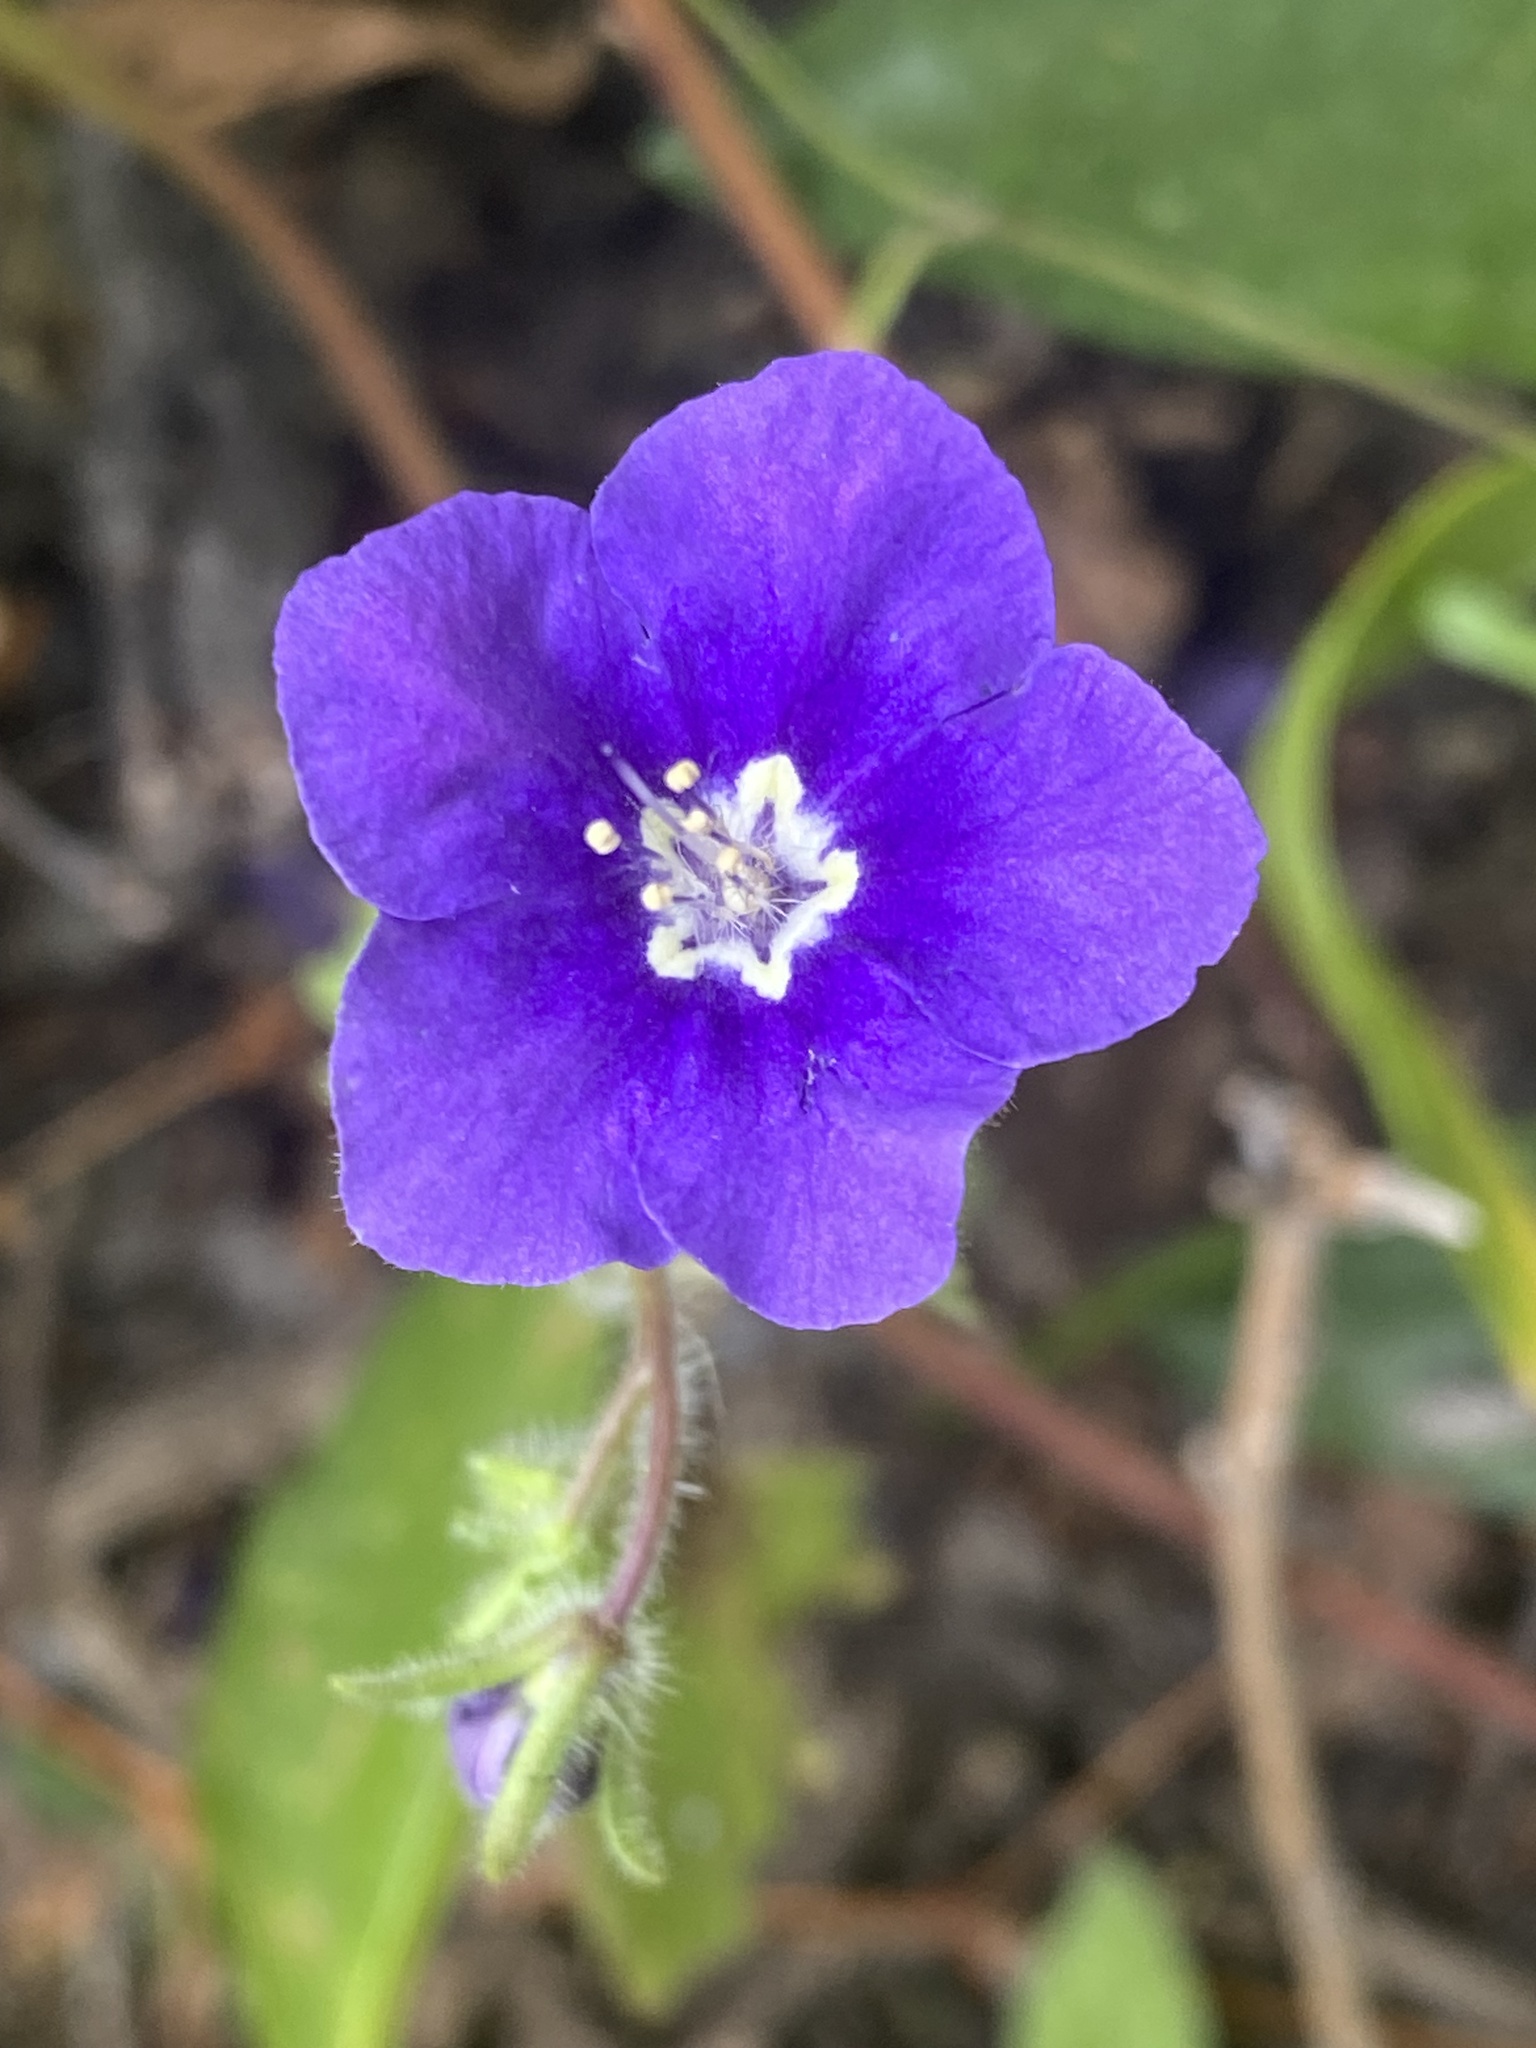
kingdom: Plantae
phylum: Tracheophyta
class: Magnoliopsida
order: Boraginales
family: Hydrophyllaceae
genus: Phacelia
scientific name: Phacelia parryi
